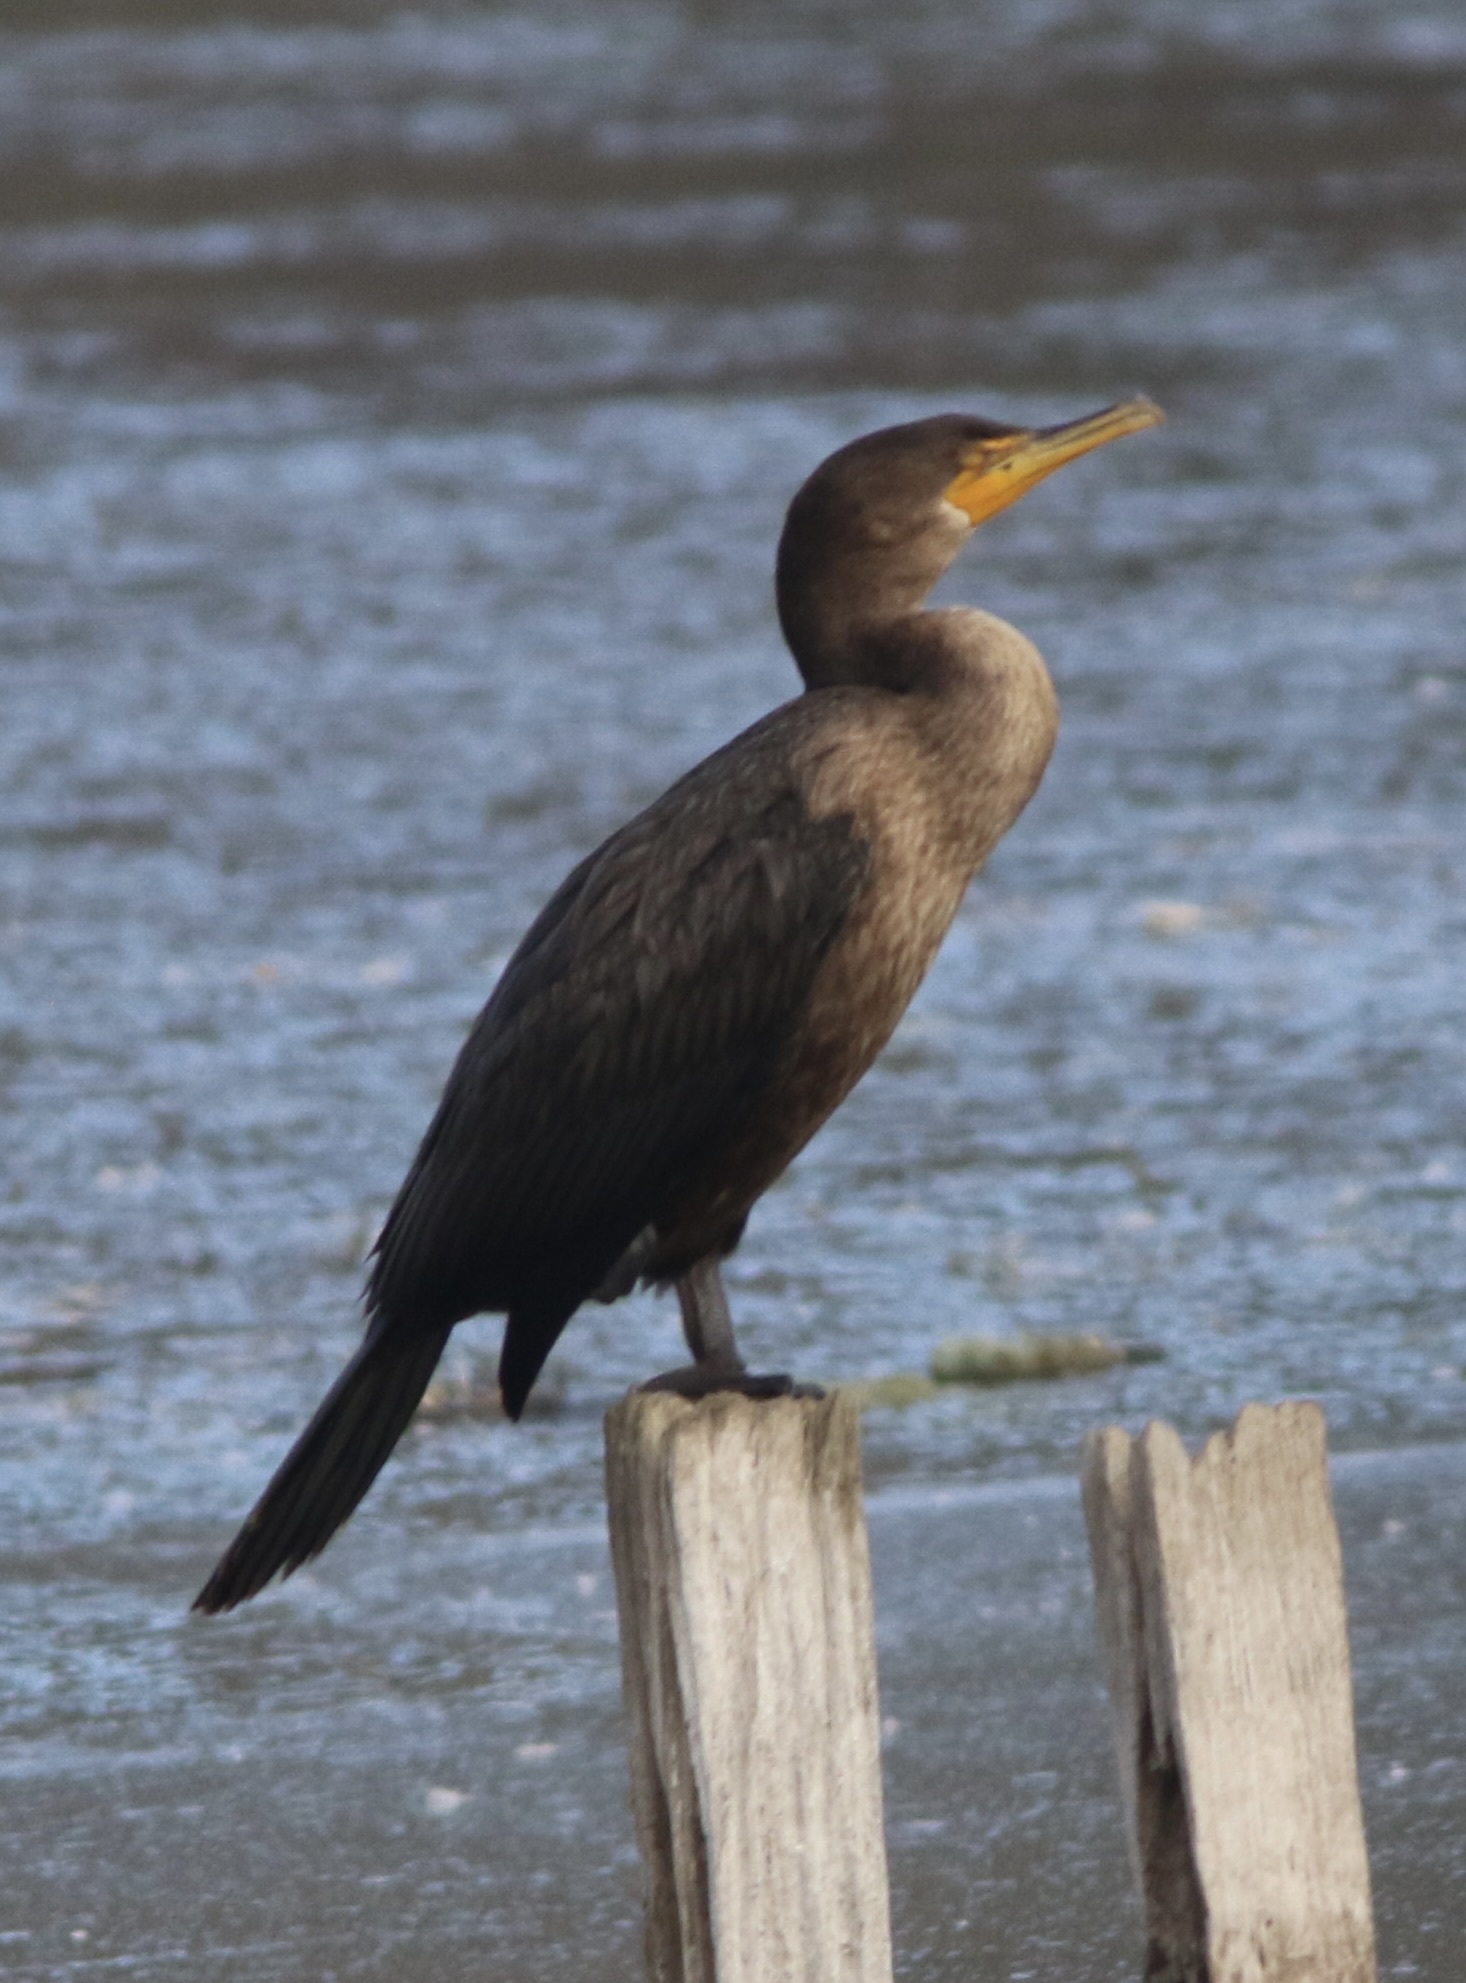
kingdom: Animalia
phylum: Chordata
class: Aves
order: Suliformes
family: Phalacrocoracidae
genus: Phalacrocorax
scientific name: Phalacrocorax auritus
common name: Double-crested cormorant
